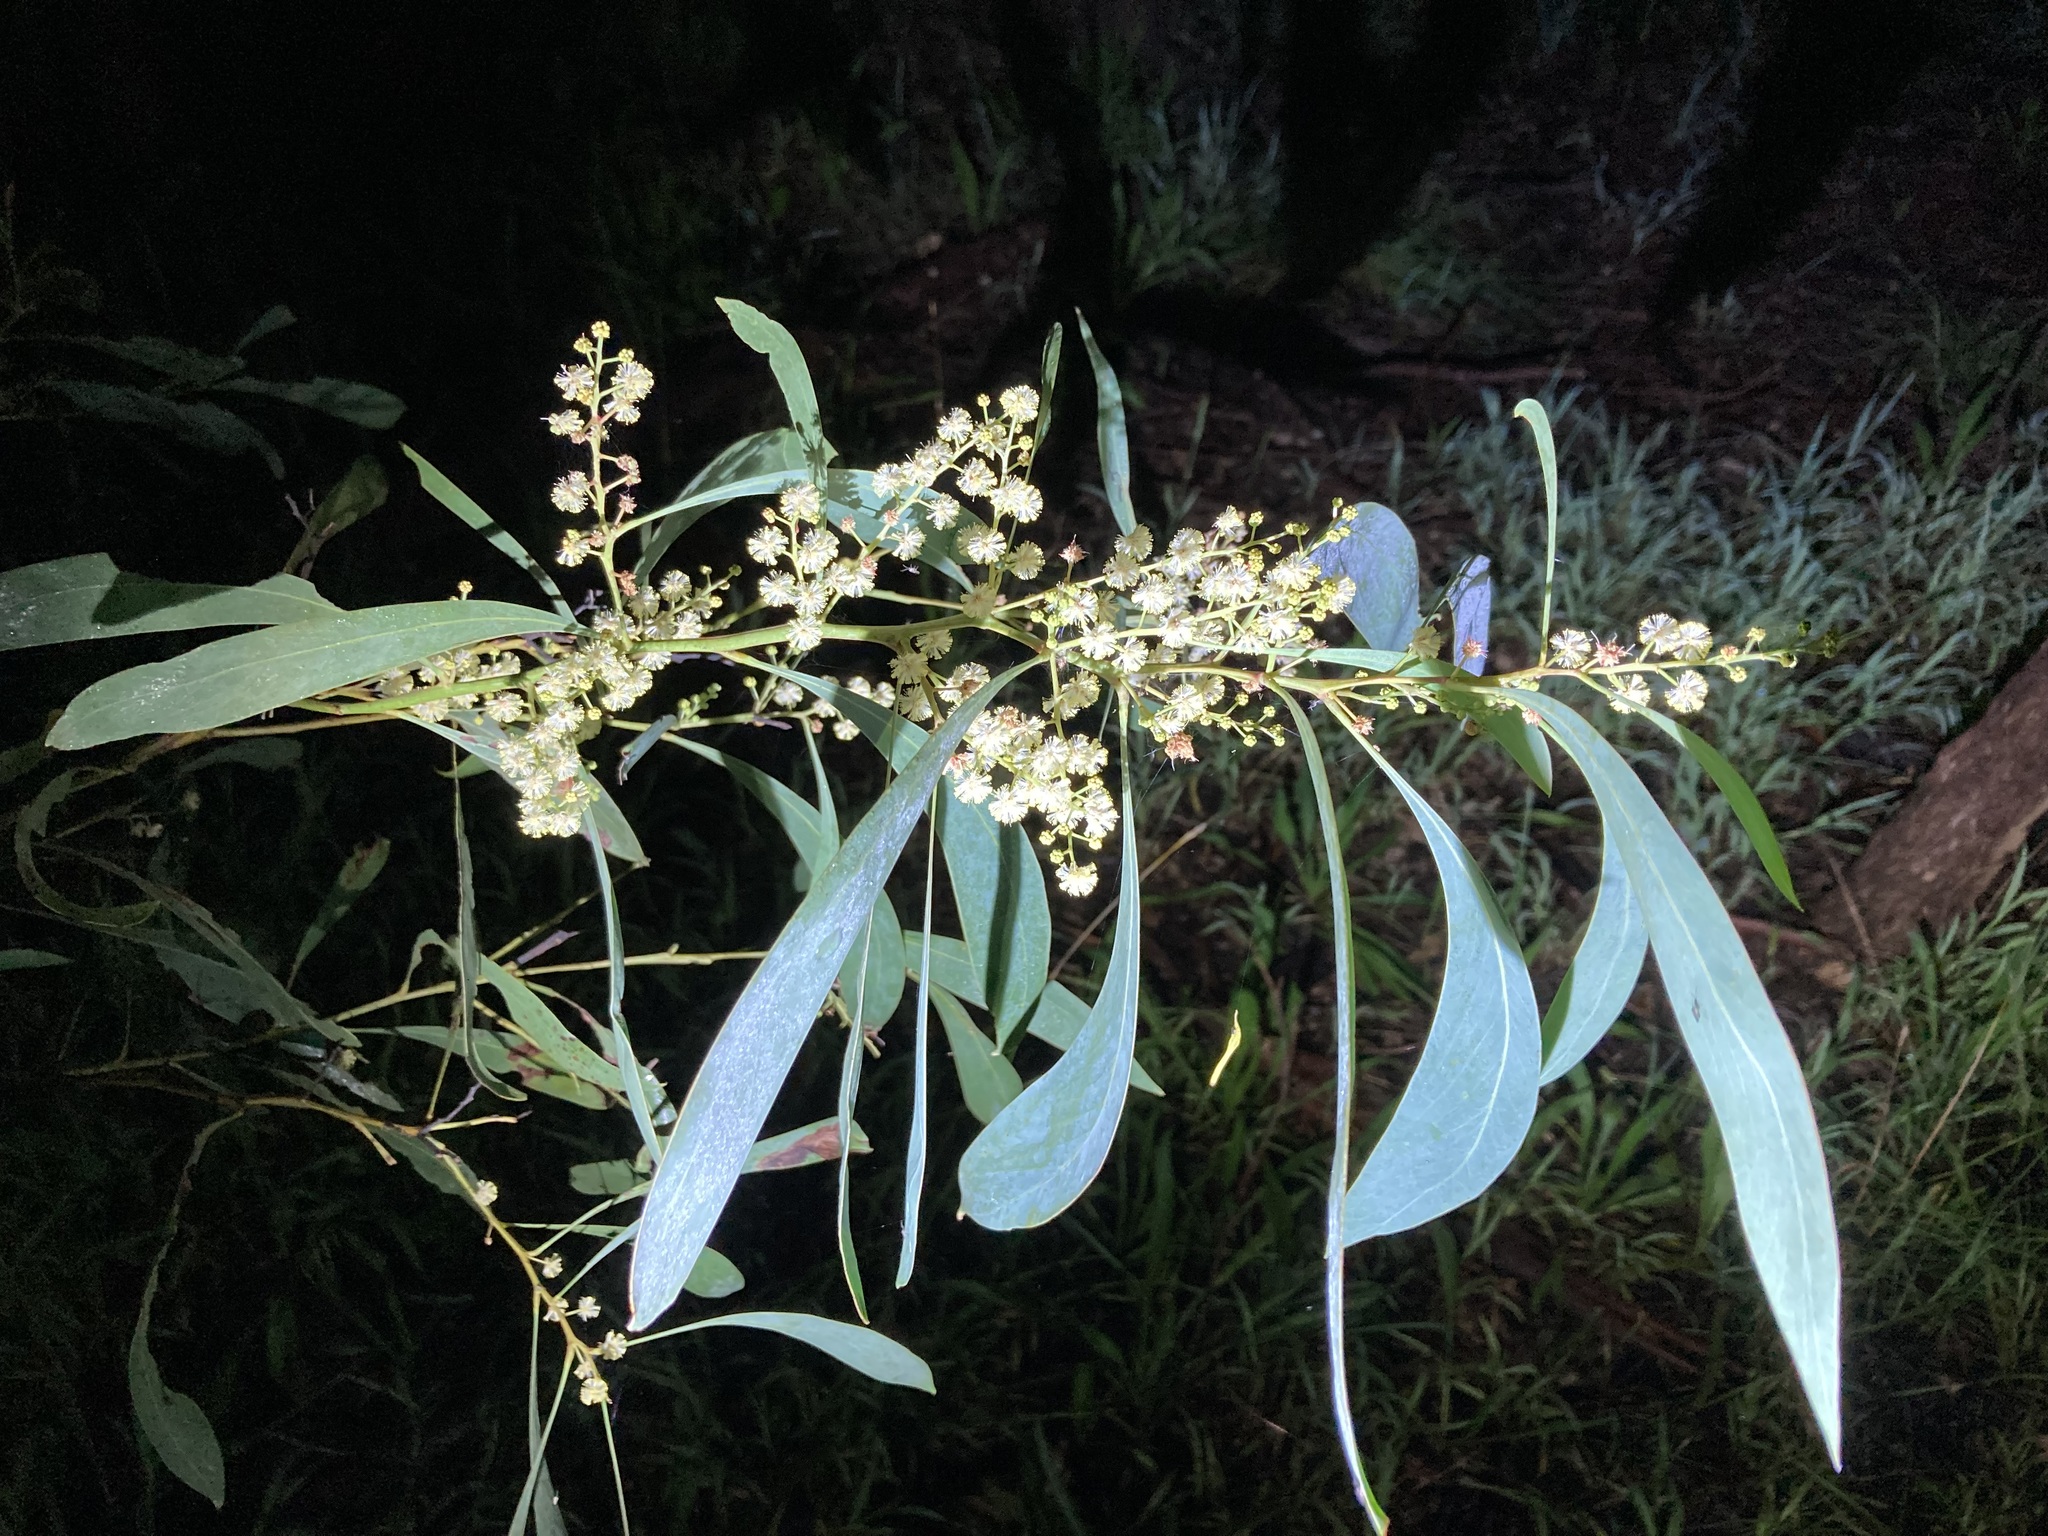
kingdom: Plantae
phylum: Tracheophyta
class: Magnoliopsida
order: Fabales
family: Fabaceae
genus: Acacia
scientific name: Acacia falcata
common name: Burra acacia
